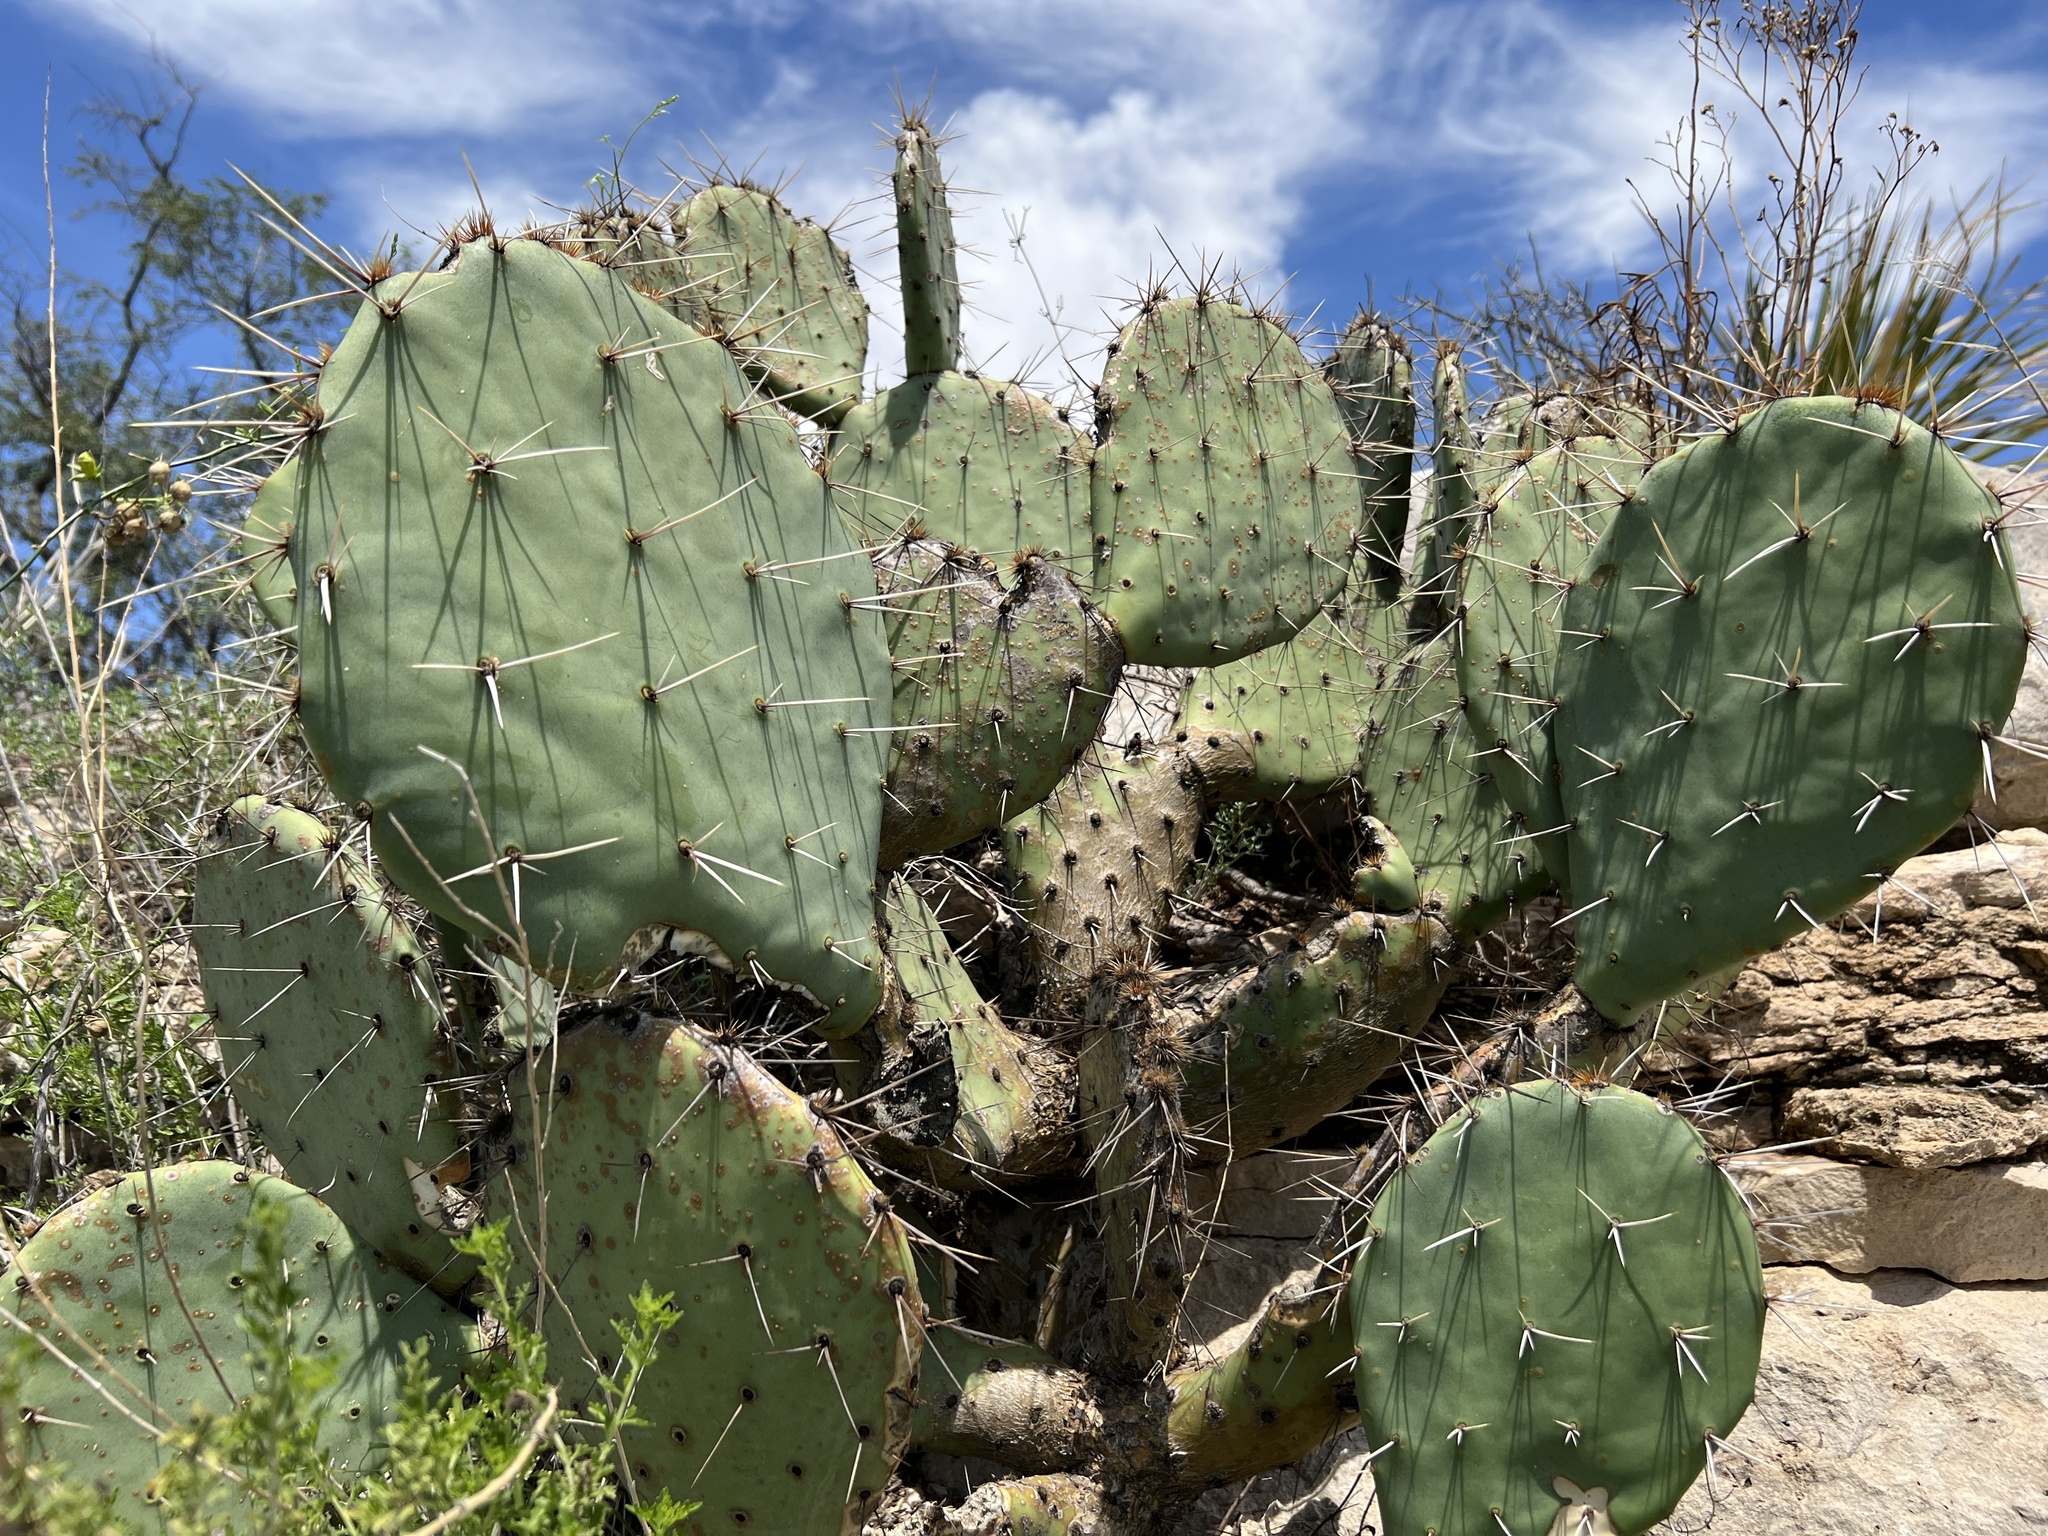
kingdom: Plantae
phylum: Tracheophyta
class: Magnoliopsida
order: Caryophyllales
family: Cactaceae
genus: Opuntia
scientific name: Opuntia engelmannii
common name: Cactus-apple
